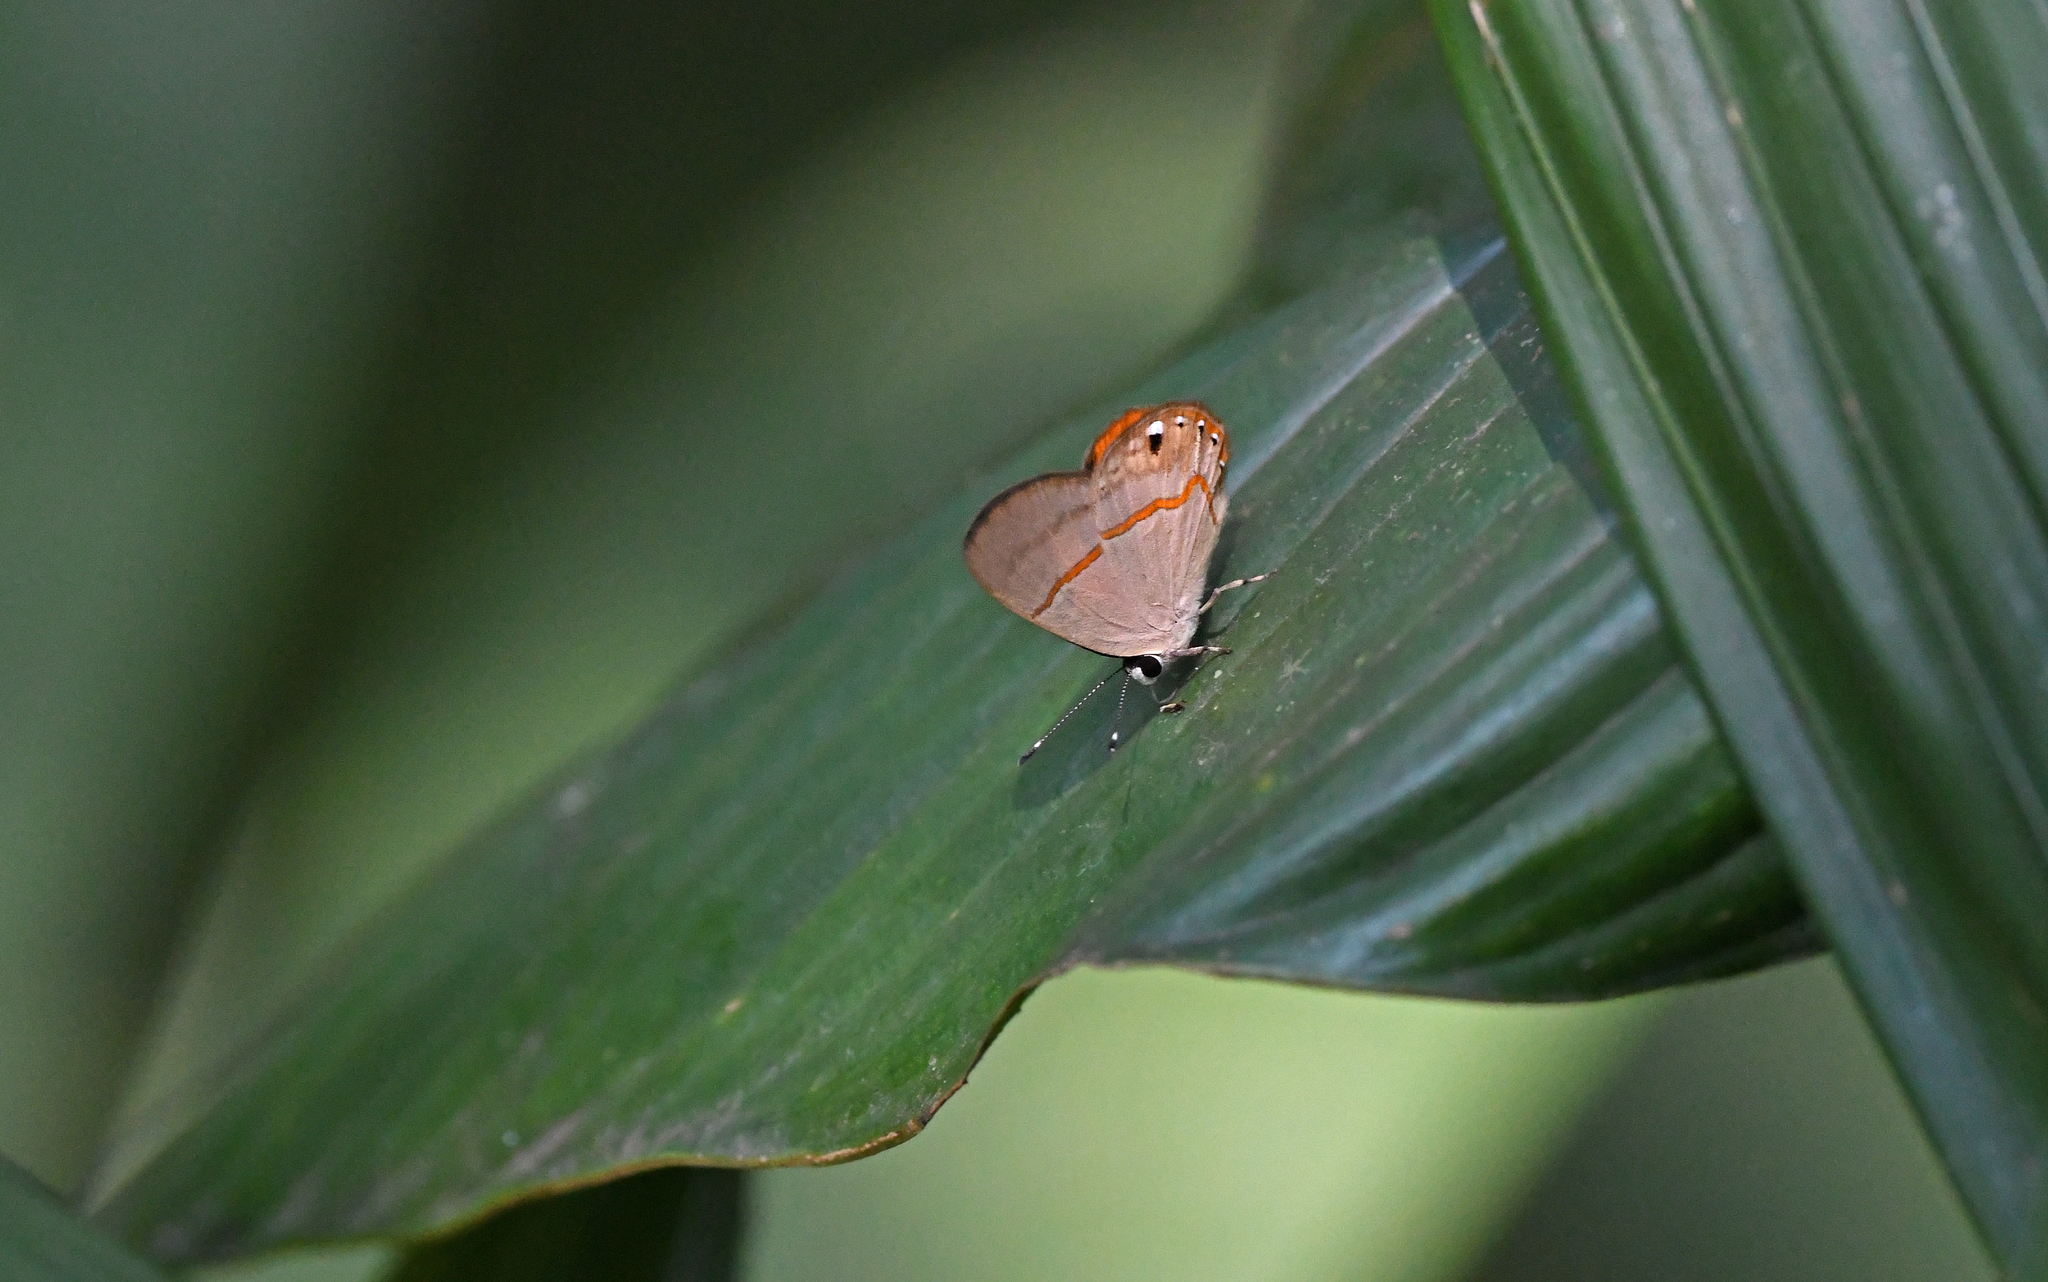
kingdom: Animalia
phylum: Arthropoda
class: Insecta
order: Lepidoptera
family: Lycaenidae
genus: Euselasia
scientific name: Euselasia crinon
